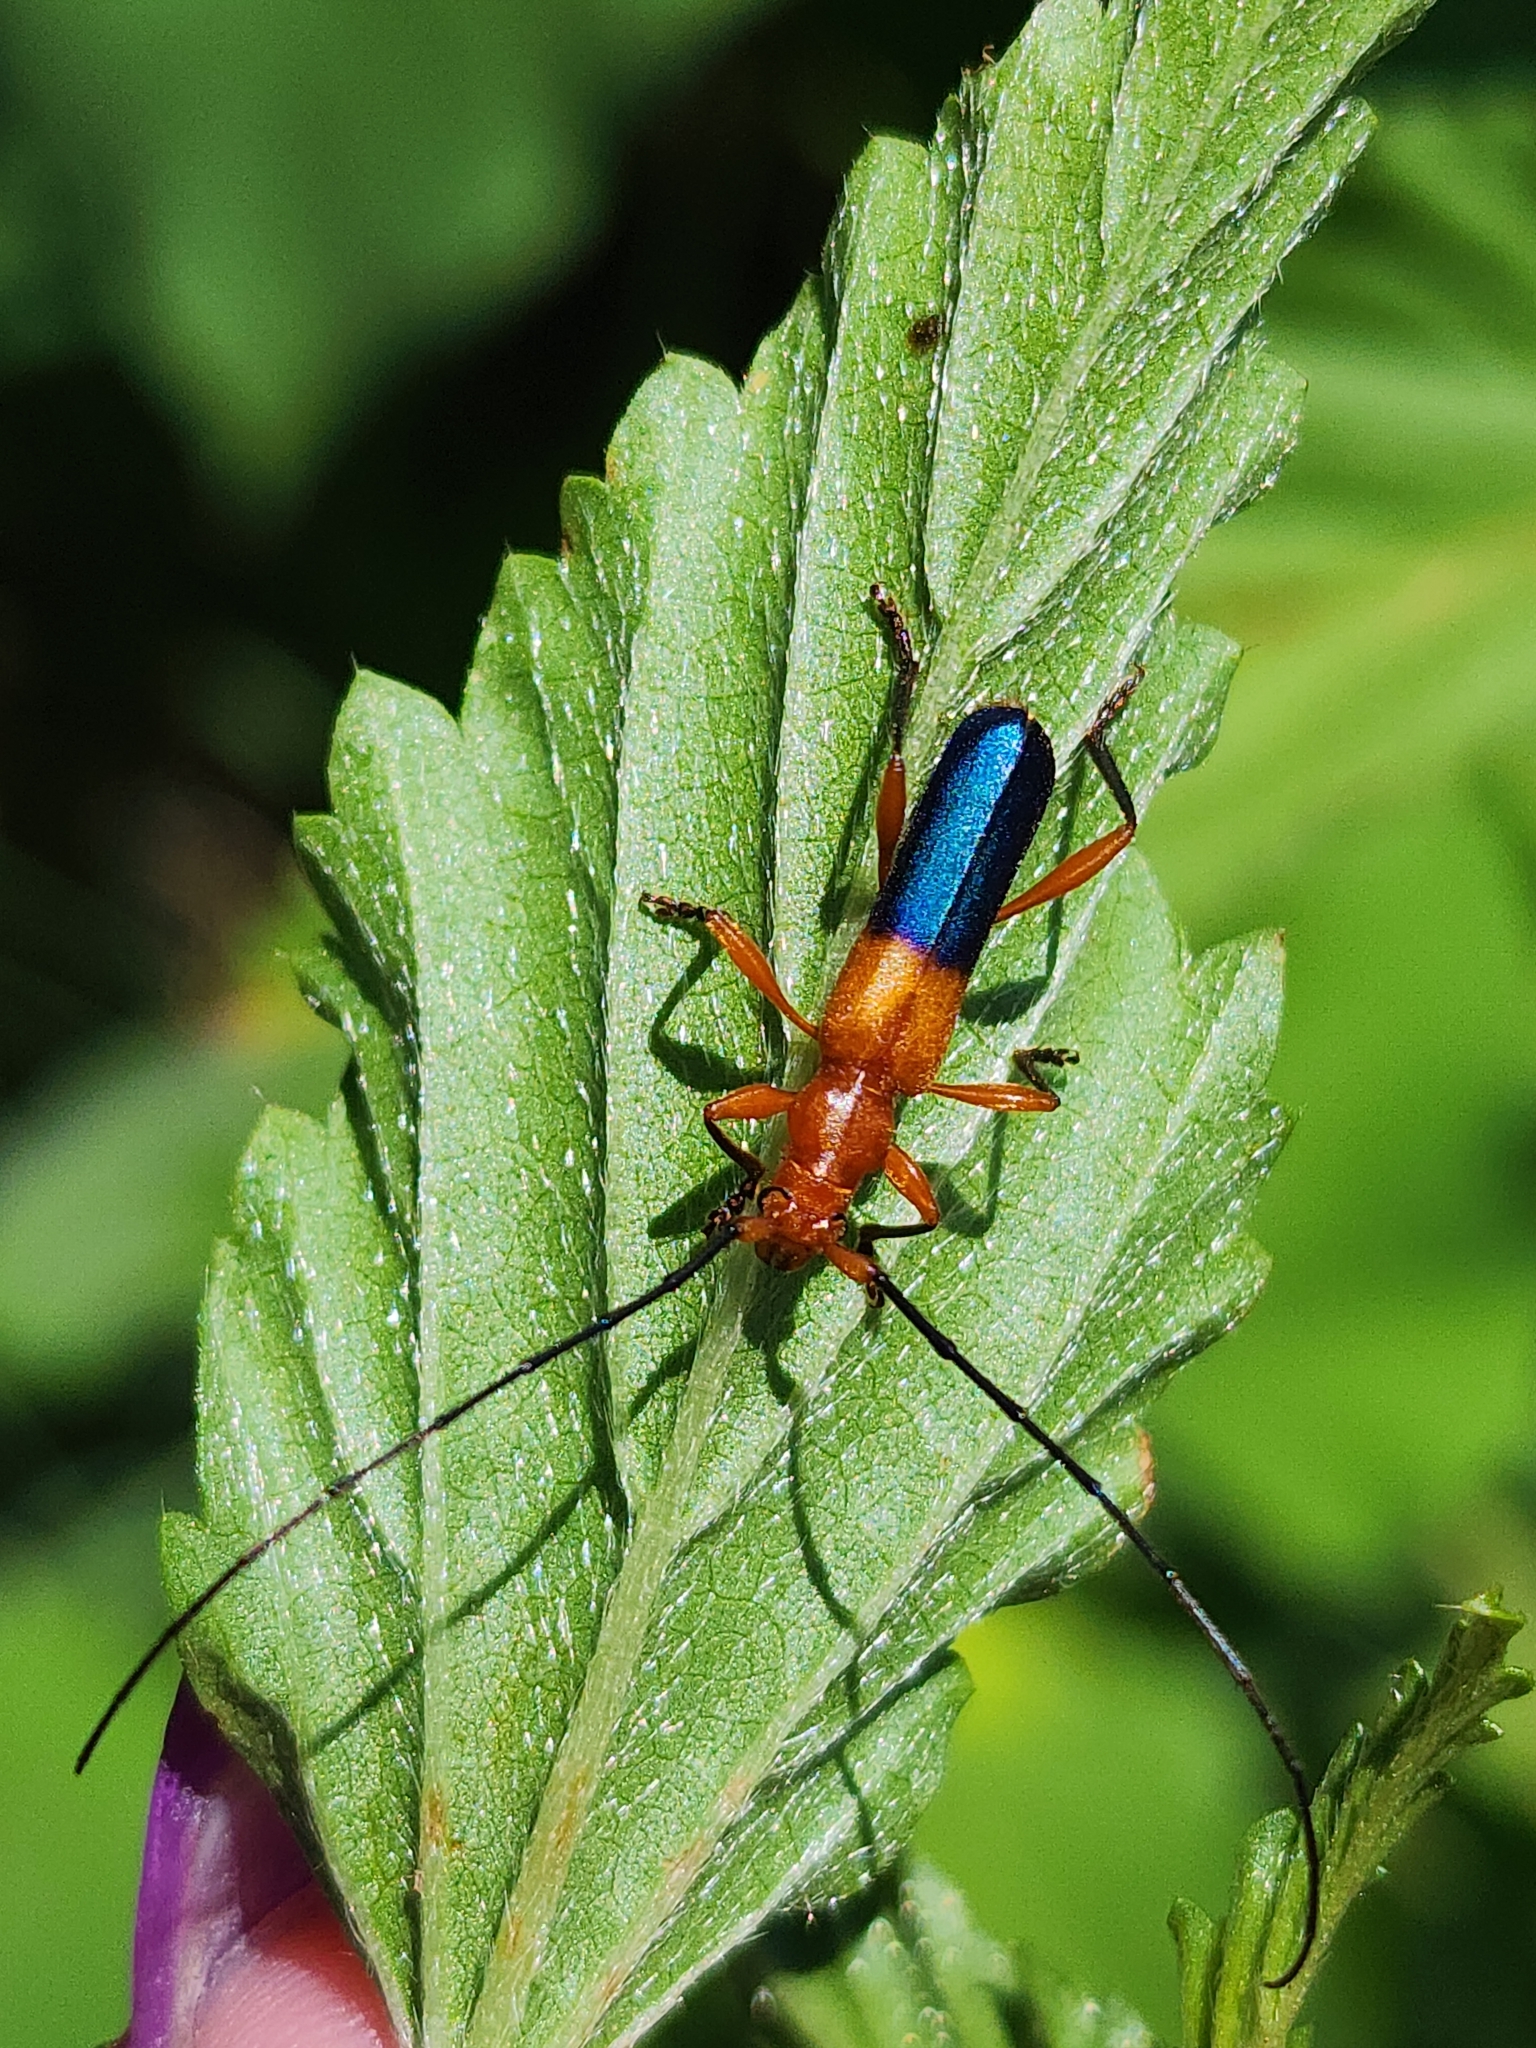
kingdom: Animalia
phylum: Arthropoda
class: Insecta
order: Coleoptera
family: Cerambycidae
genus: Ethemon
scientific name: Ethemon basale
